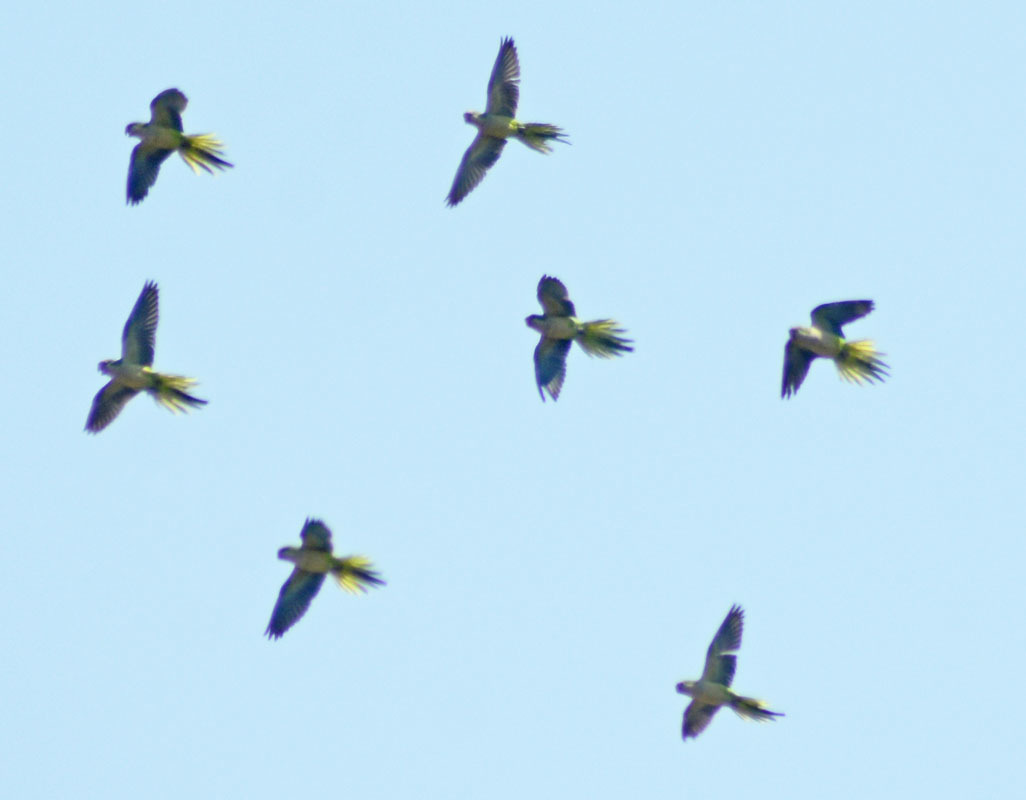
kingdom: Animalia
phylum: Chordata
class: Aves
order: Psittaciformes
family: Psittacidae
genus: Myiopsitta
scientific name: Myiopsitta monachus
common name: Monk parakeet
